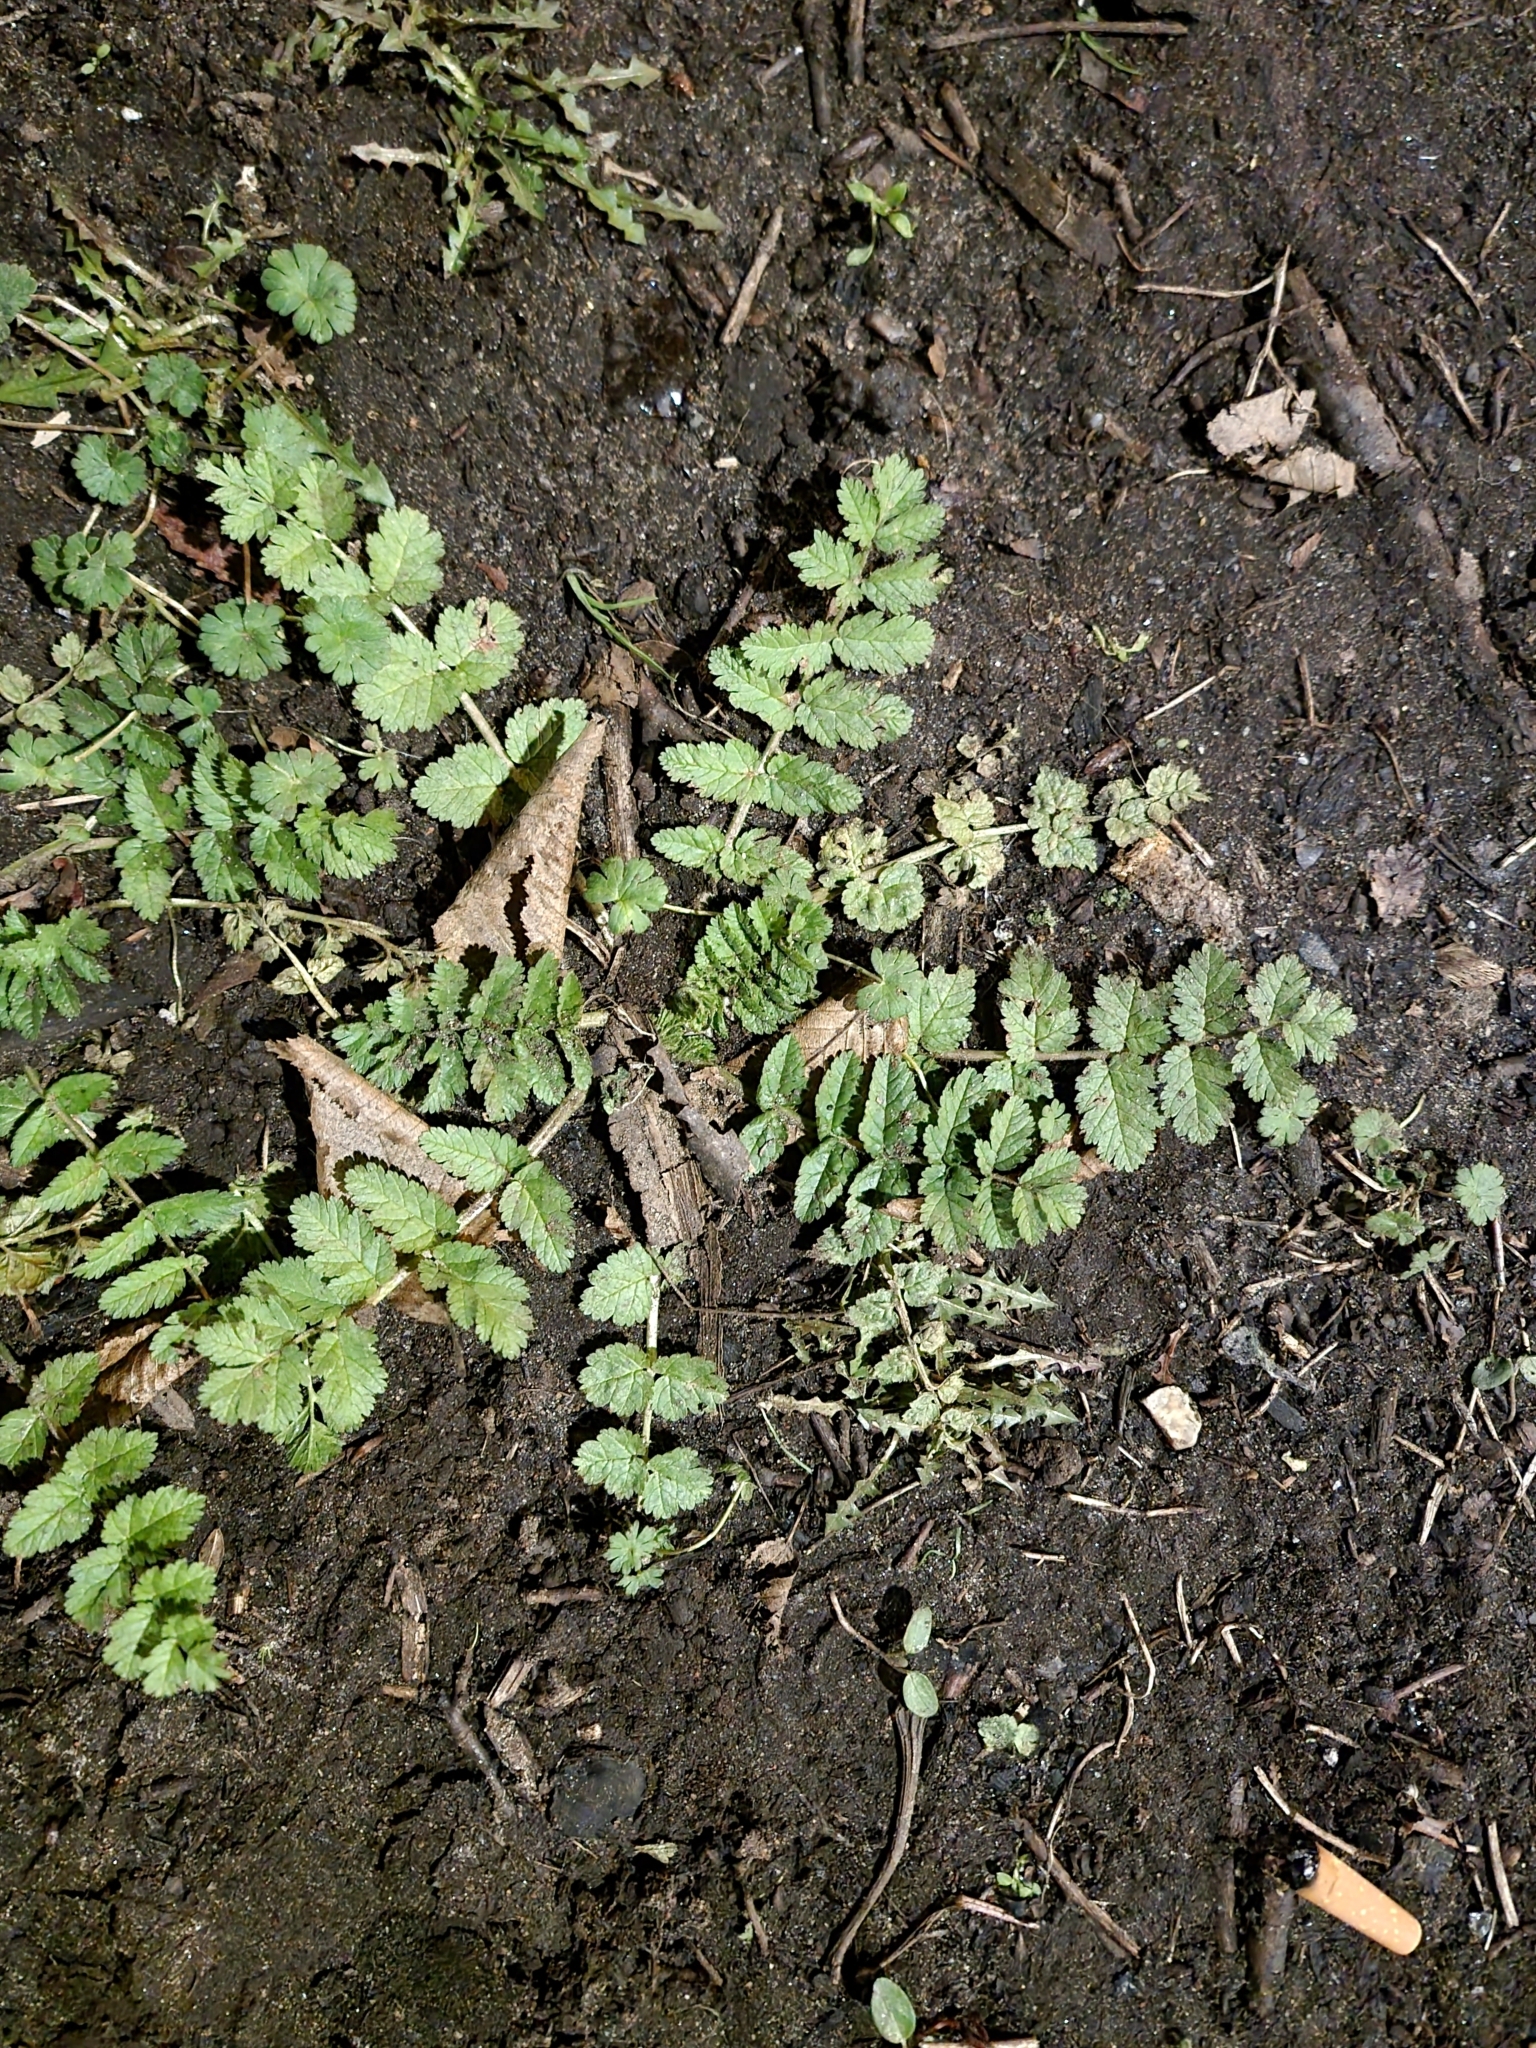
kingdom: Plantae
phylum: Tracheophyta
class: Magnoliopsida
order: Geraniales
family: Geraniaceae
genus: Erodium
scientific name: Erodium moschatum
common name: Musk stork's-bill
